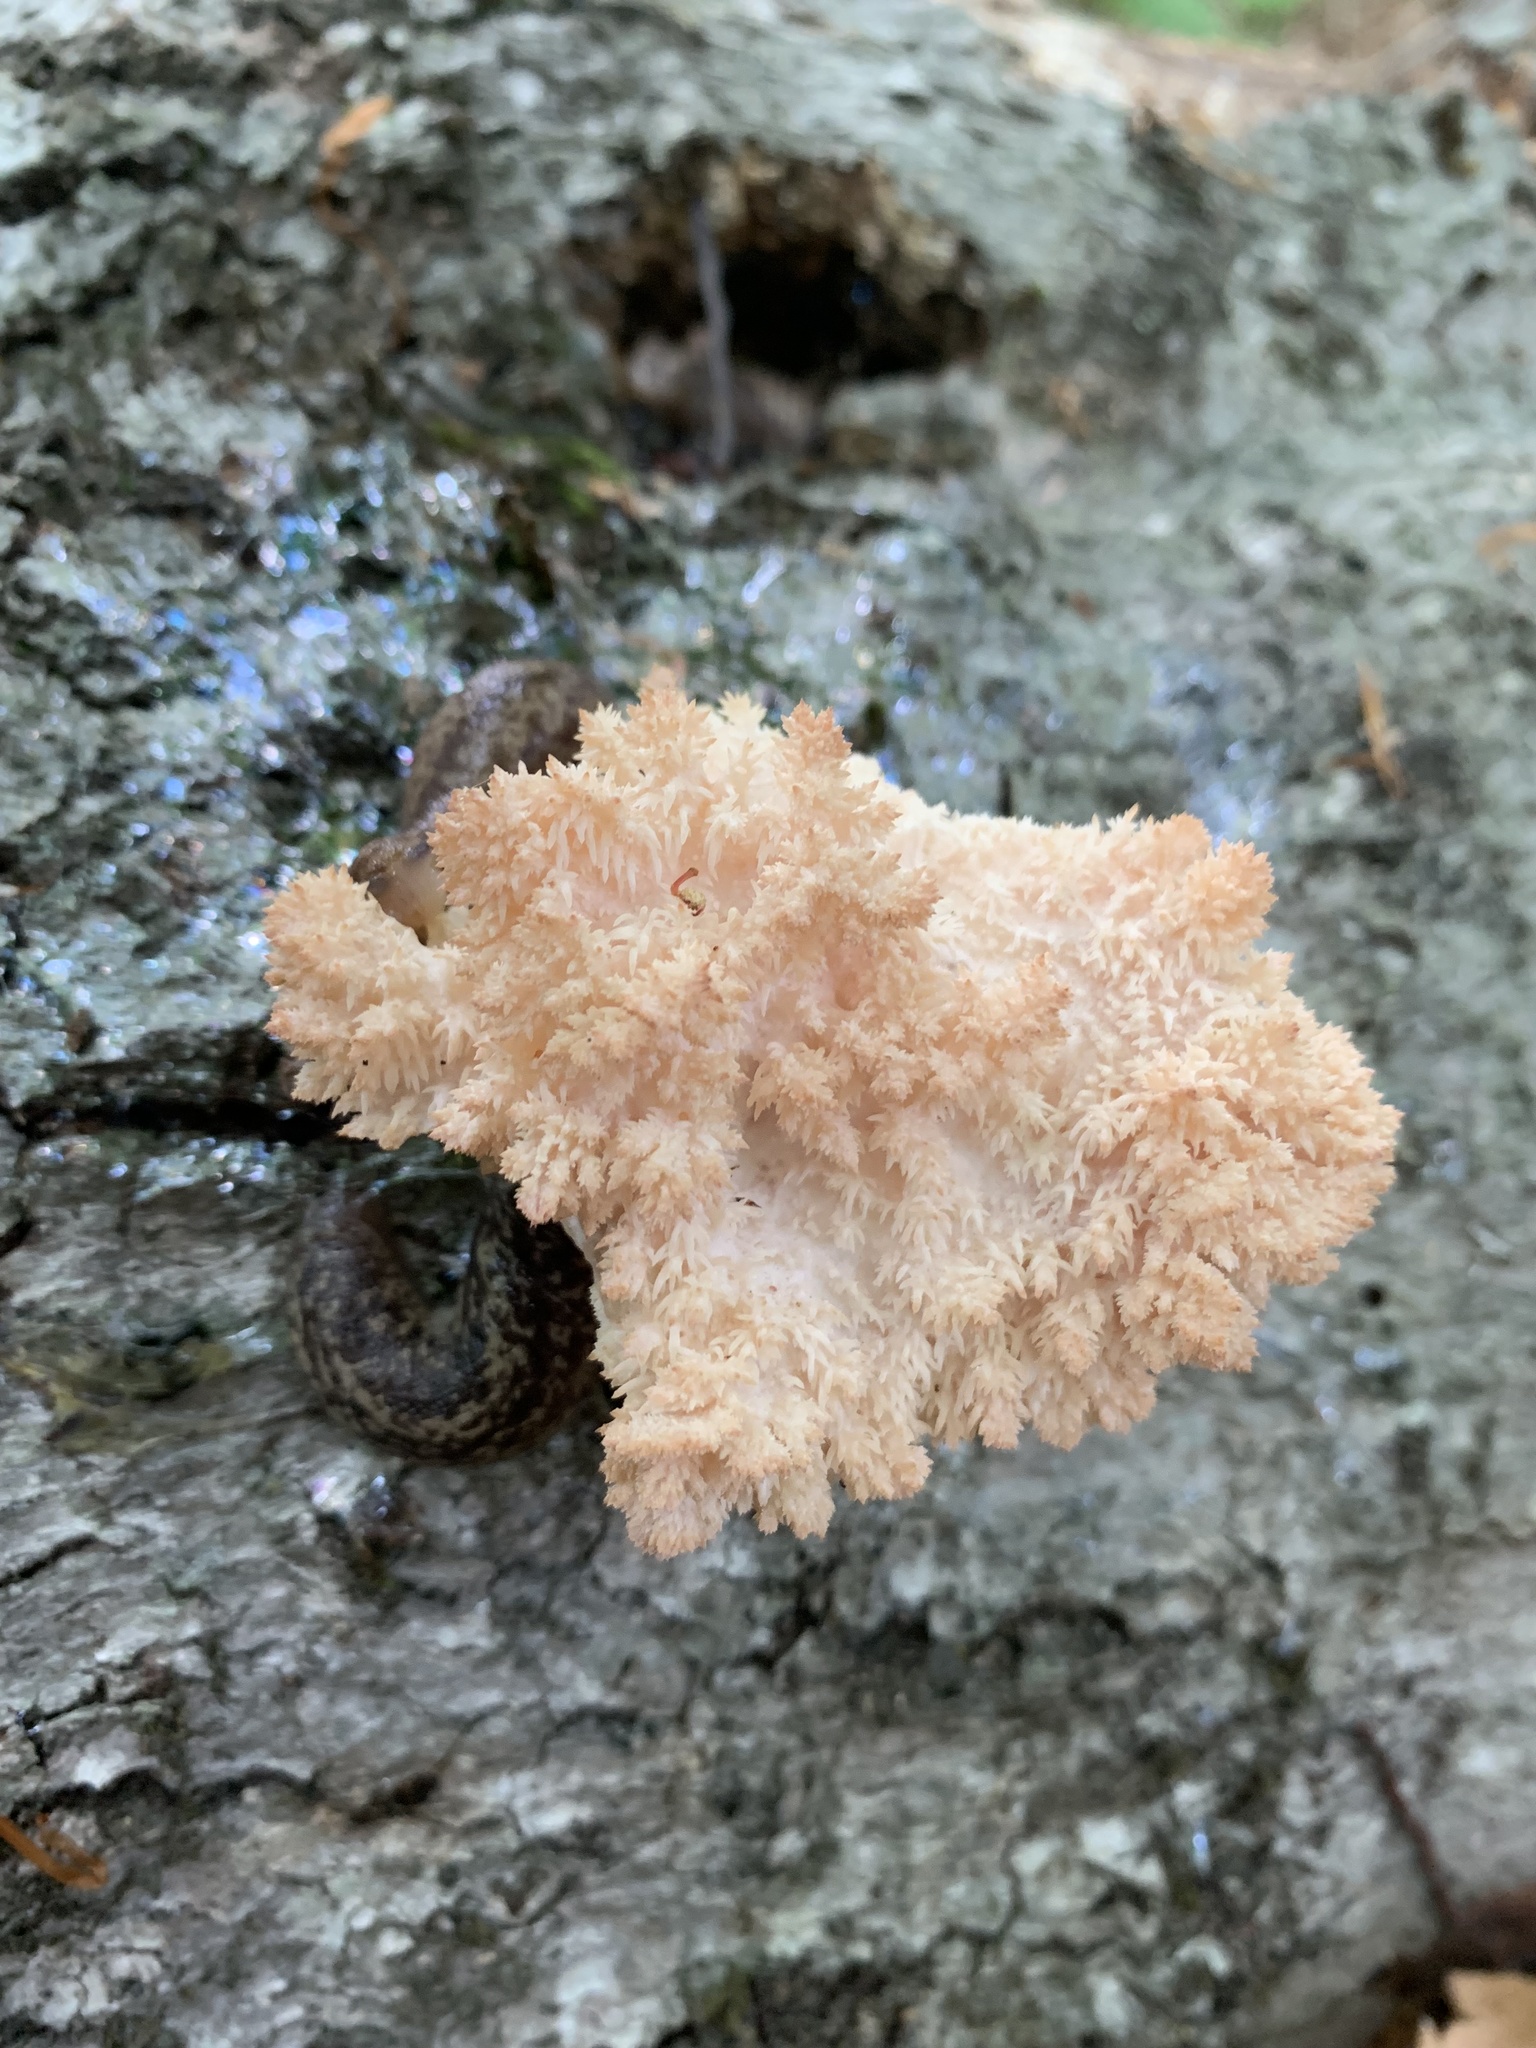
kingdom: Fungi
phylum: Basidiomycota
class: Agaricomycetes
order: Russulales
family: Hericiaceae
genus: Hericium
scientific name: Hericium coralloides
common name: Coral tooth
